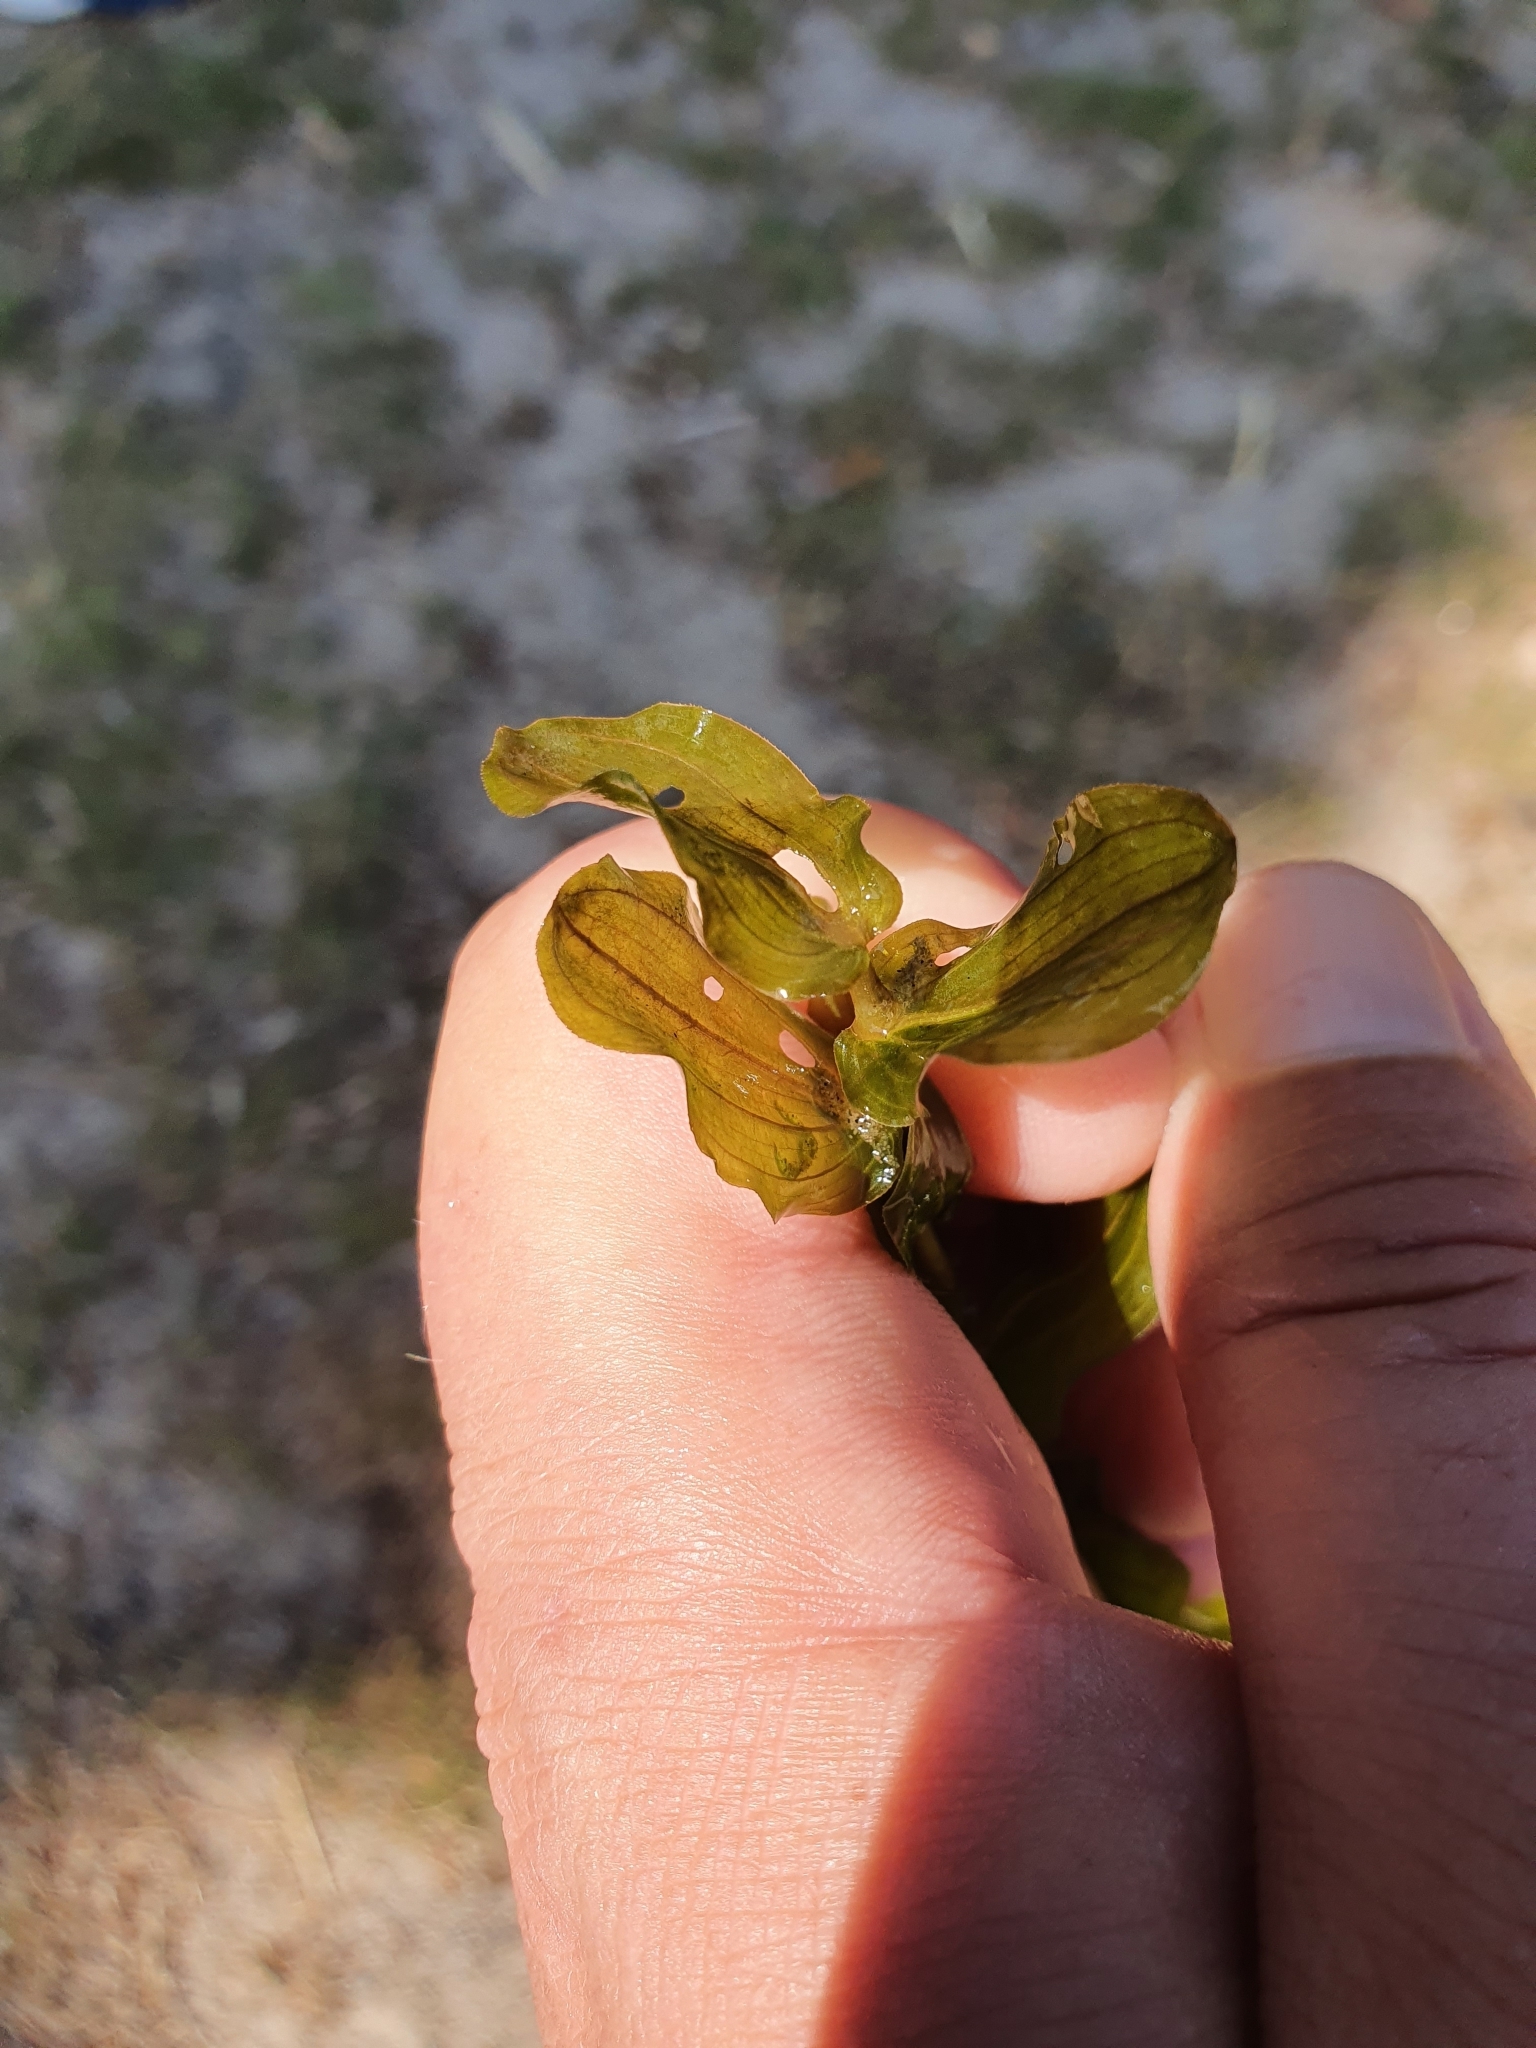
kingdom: Plantae
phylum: Tracheophyta
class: Liliopsida
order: Alismatales
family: Potamogetonaceae
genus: Potamogeton
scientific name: Potamogeton perfoliatus
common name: Perfoliate pondweed
